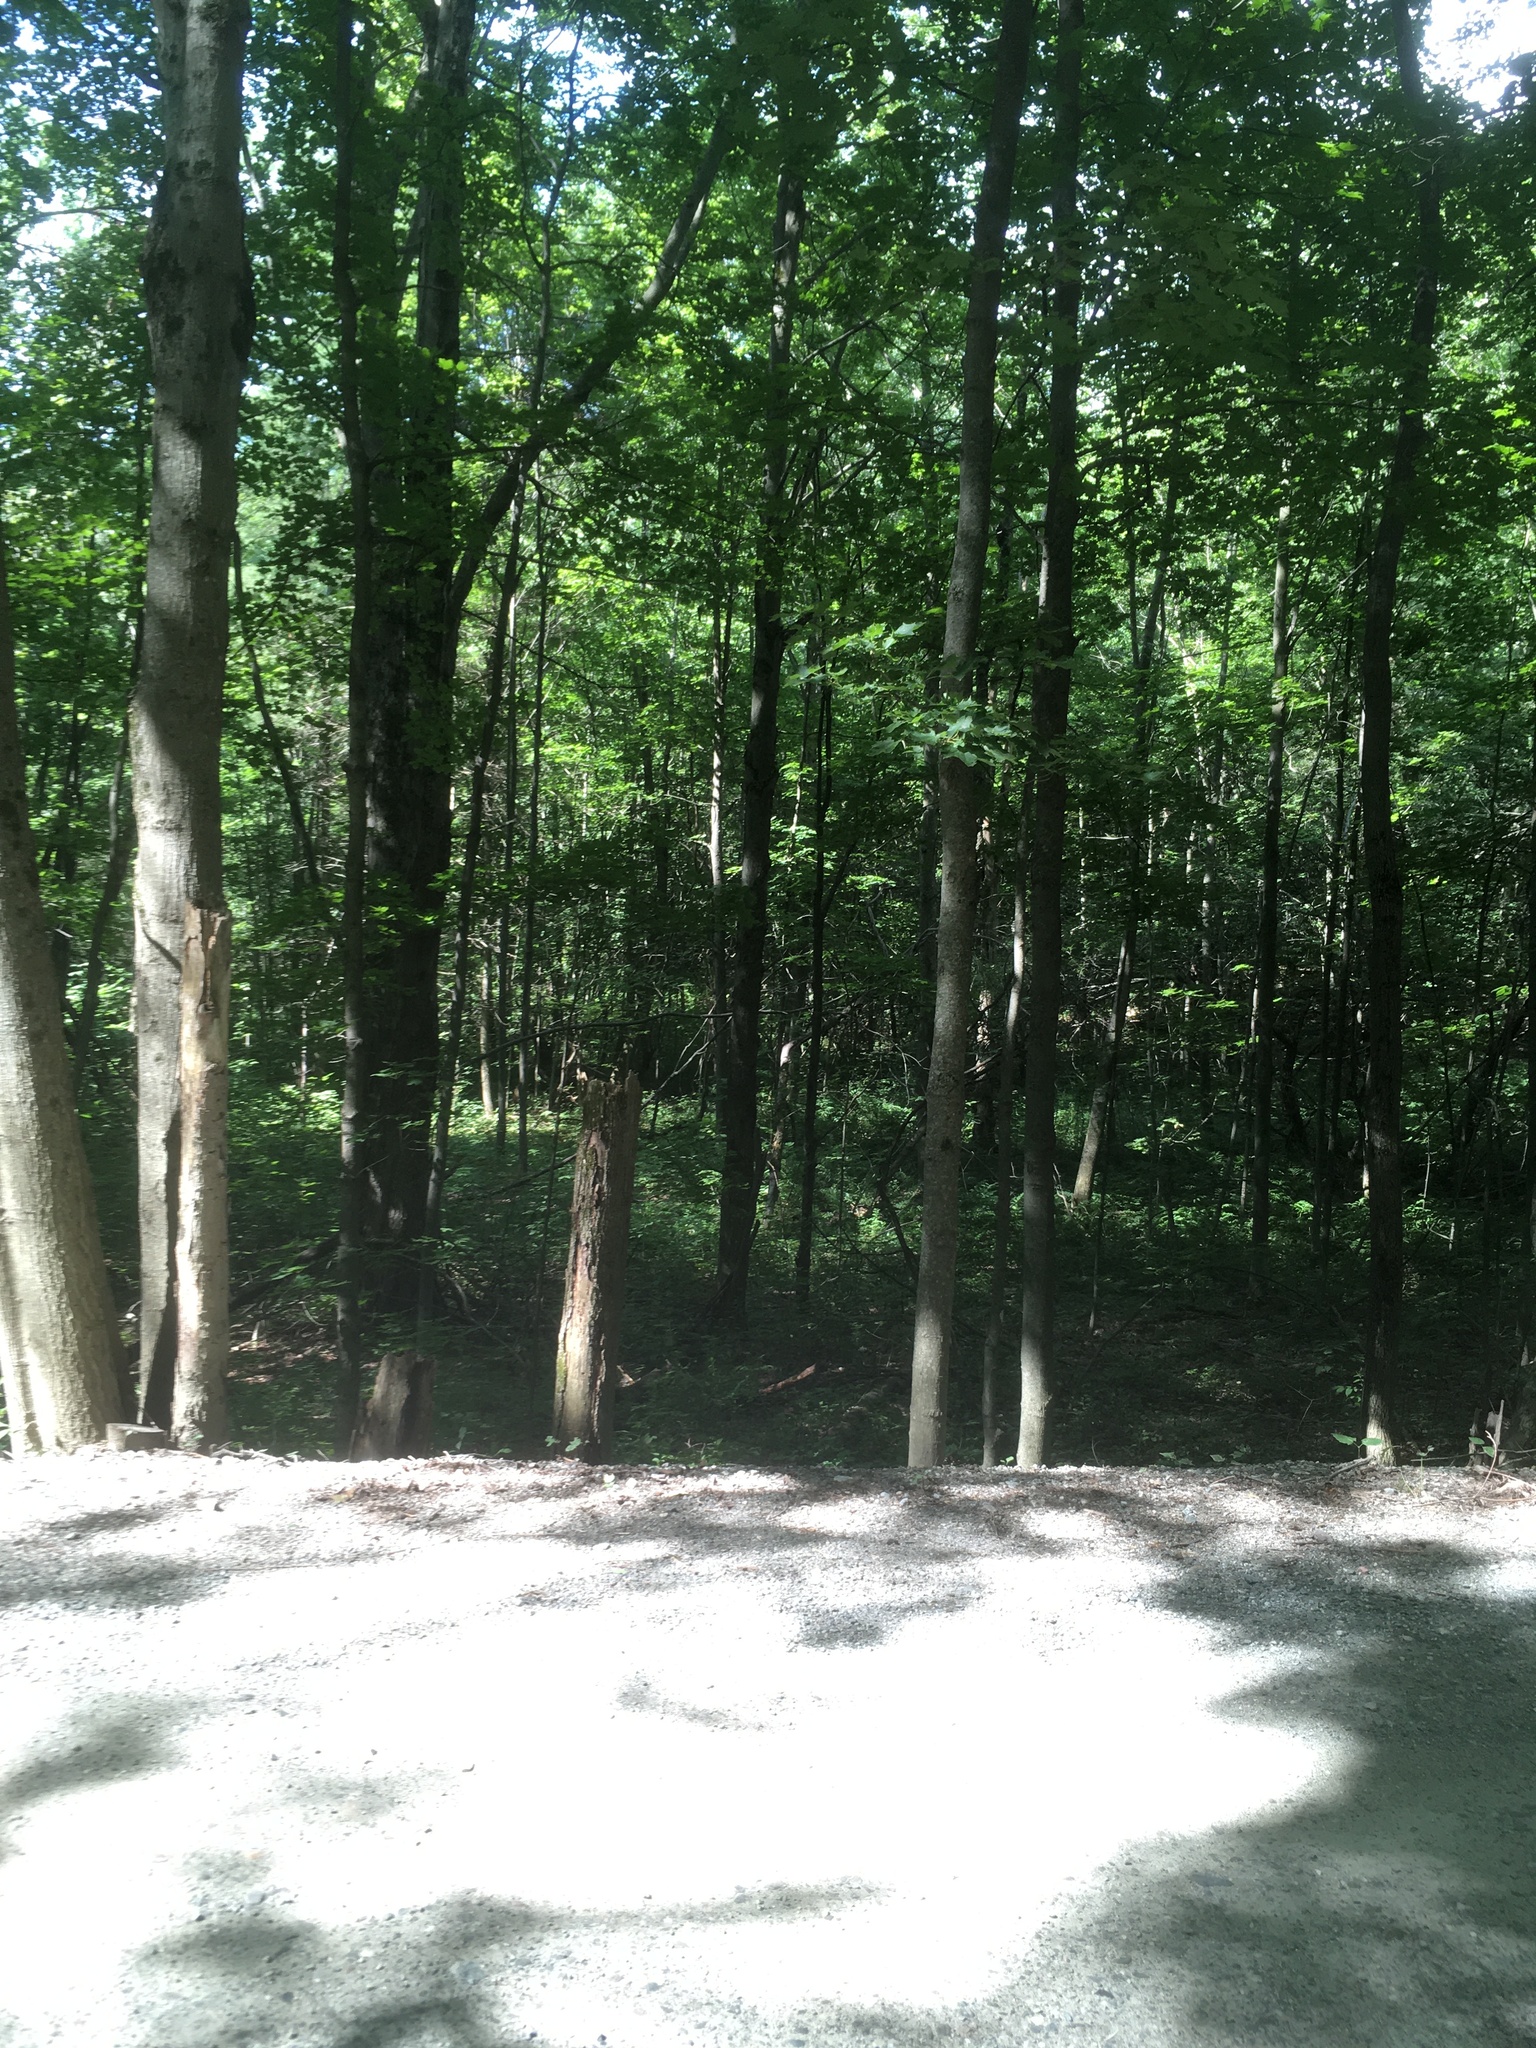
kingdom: Plantae
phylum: Tracheophyta
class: Magnoliopsida
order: Sapindales
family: Sapindaceae
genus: Acer
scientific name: Acer saccharum
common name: Sugar maple
